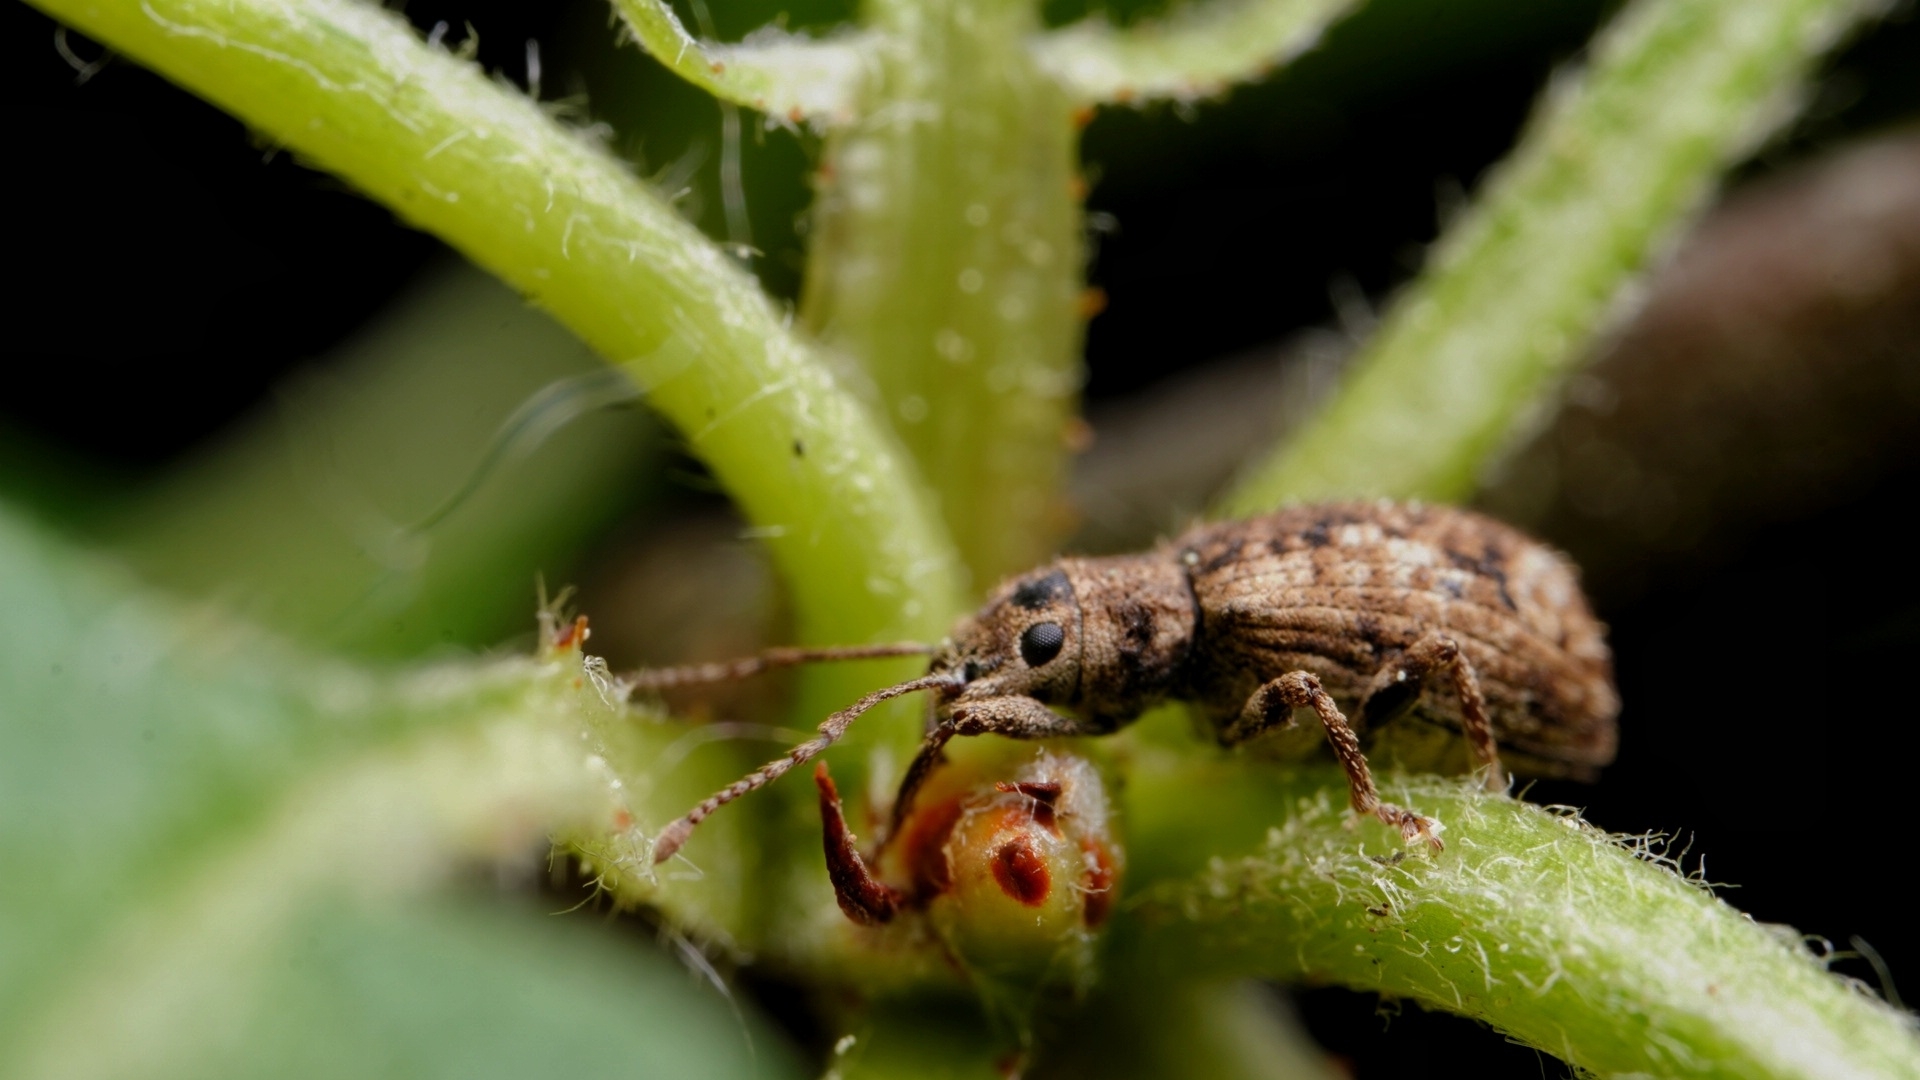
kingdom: Animalia
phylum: Arthropoda
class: Insecta
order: Coleoptera
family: Curculionidae
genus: Pseudoedophrys
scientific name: Pseudoedophrys hilleri
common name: Weevil
